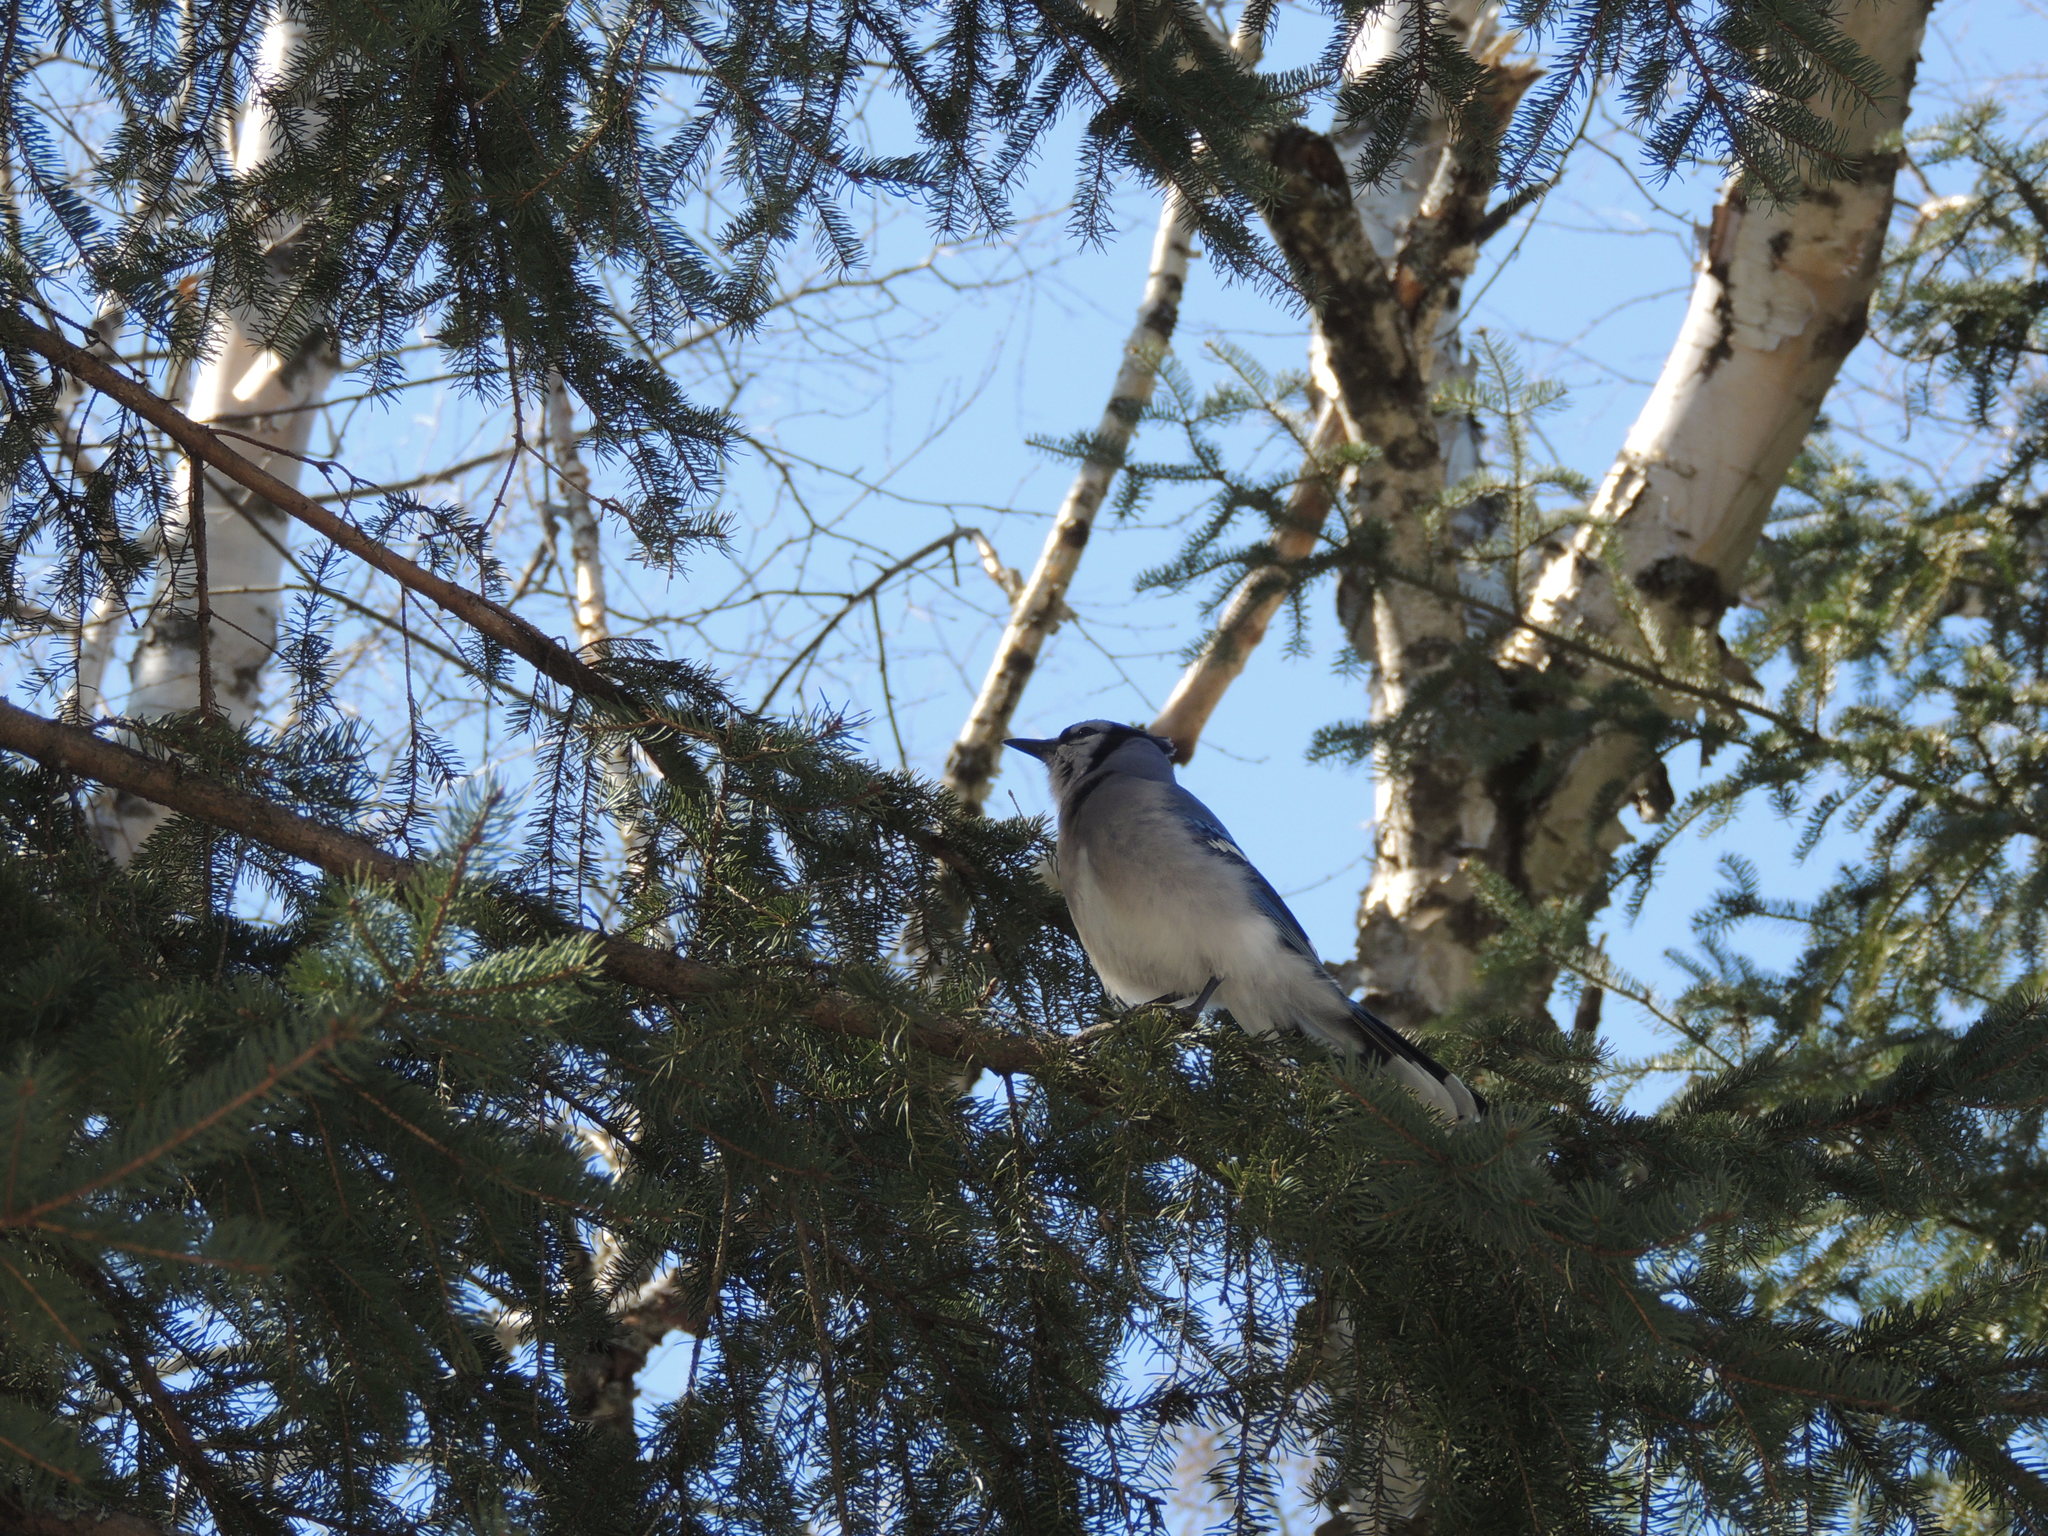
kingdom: Animalia
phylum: Chordata
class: Aves
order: Passeriformes
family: Corvidae
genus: Cyanocitta
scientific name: Cyanocitta cristata
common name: Blue jay
